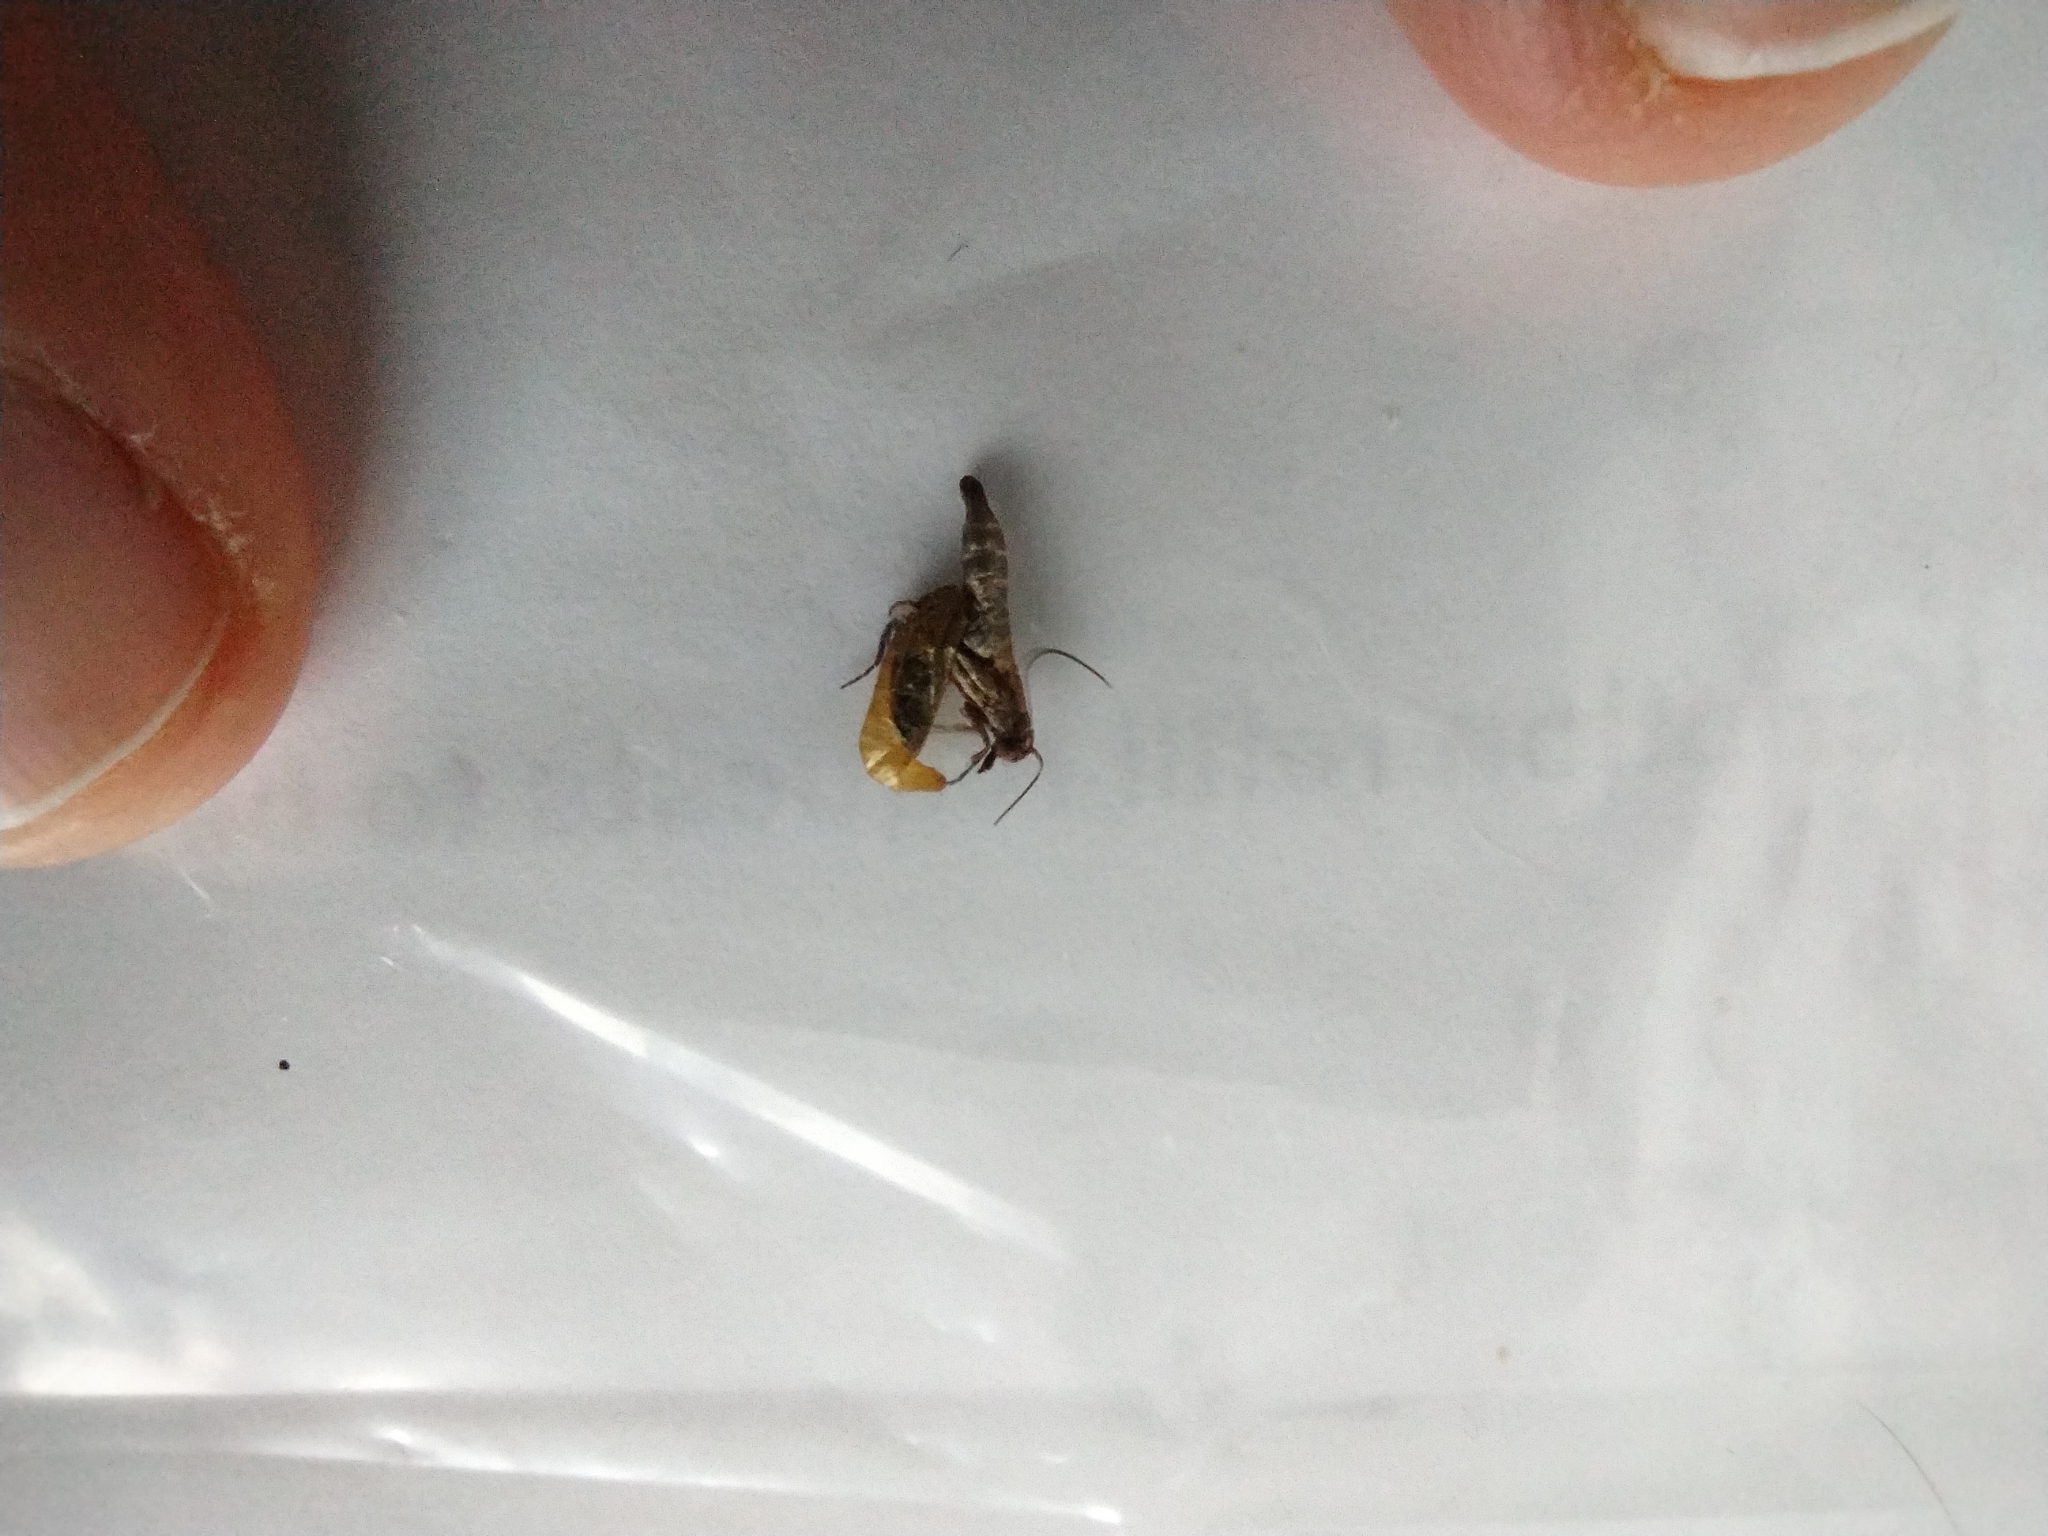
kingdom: Animalia
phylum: Arthropoda
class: Insecta
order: Lepidoptera
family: Pyralidae
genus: Plodia
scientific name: Plodia interpunctella
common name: Indian meal moth
